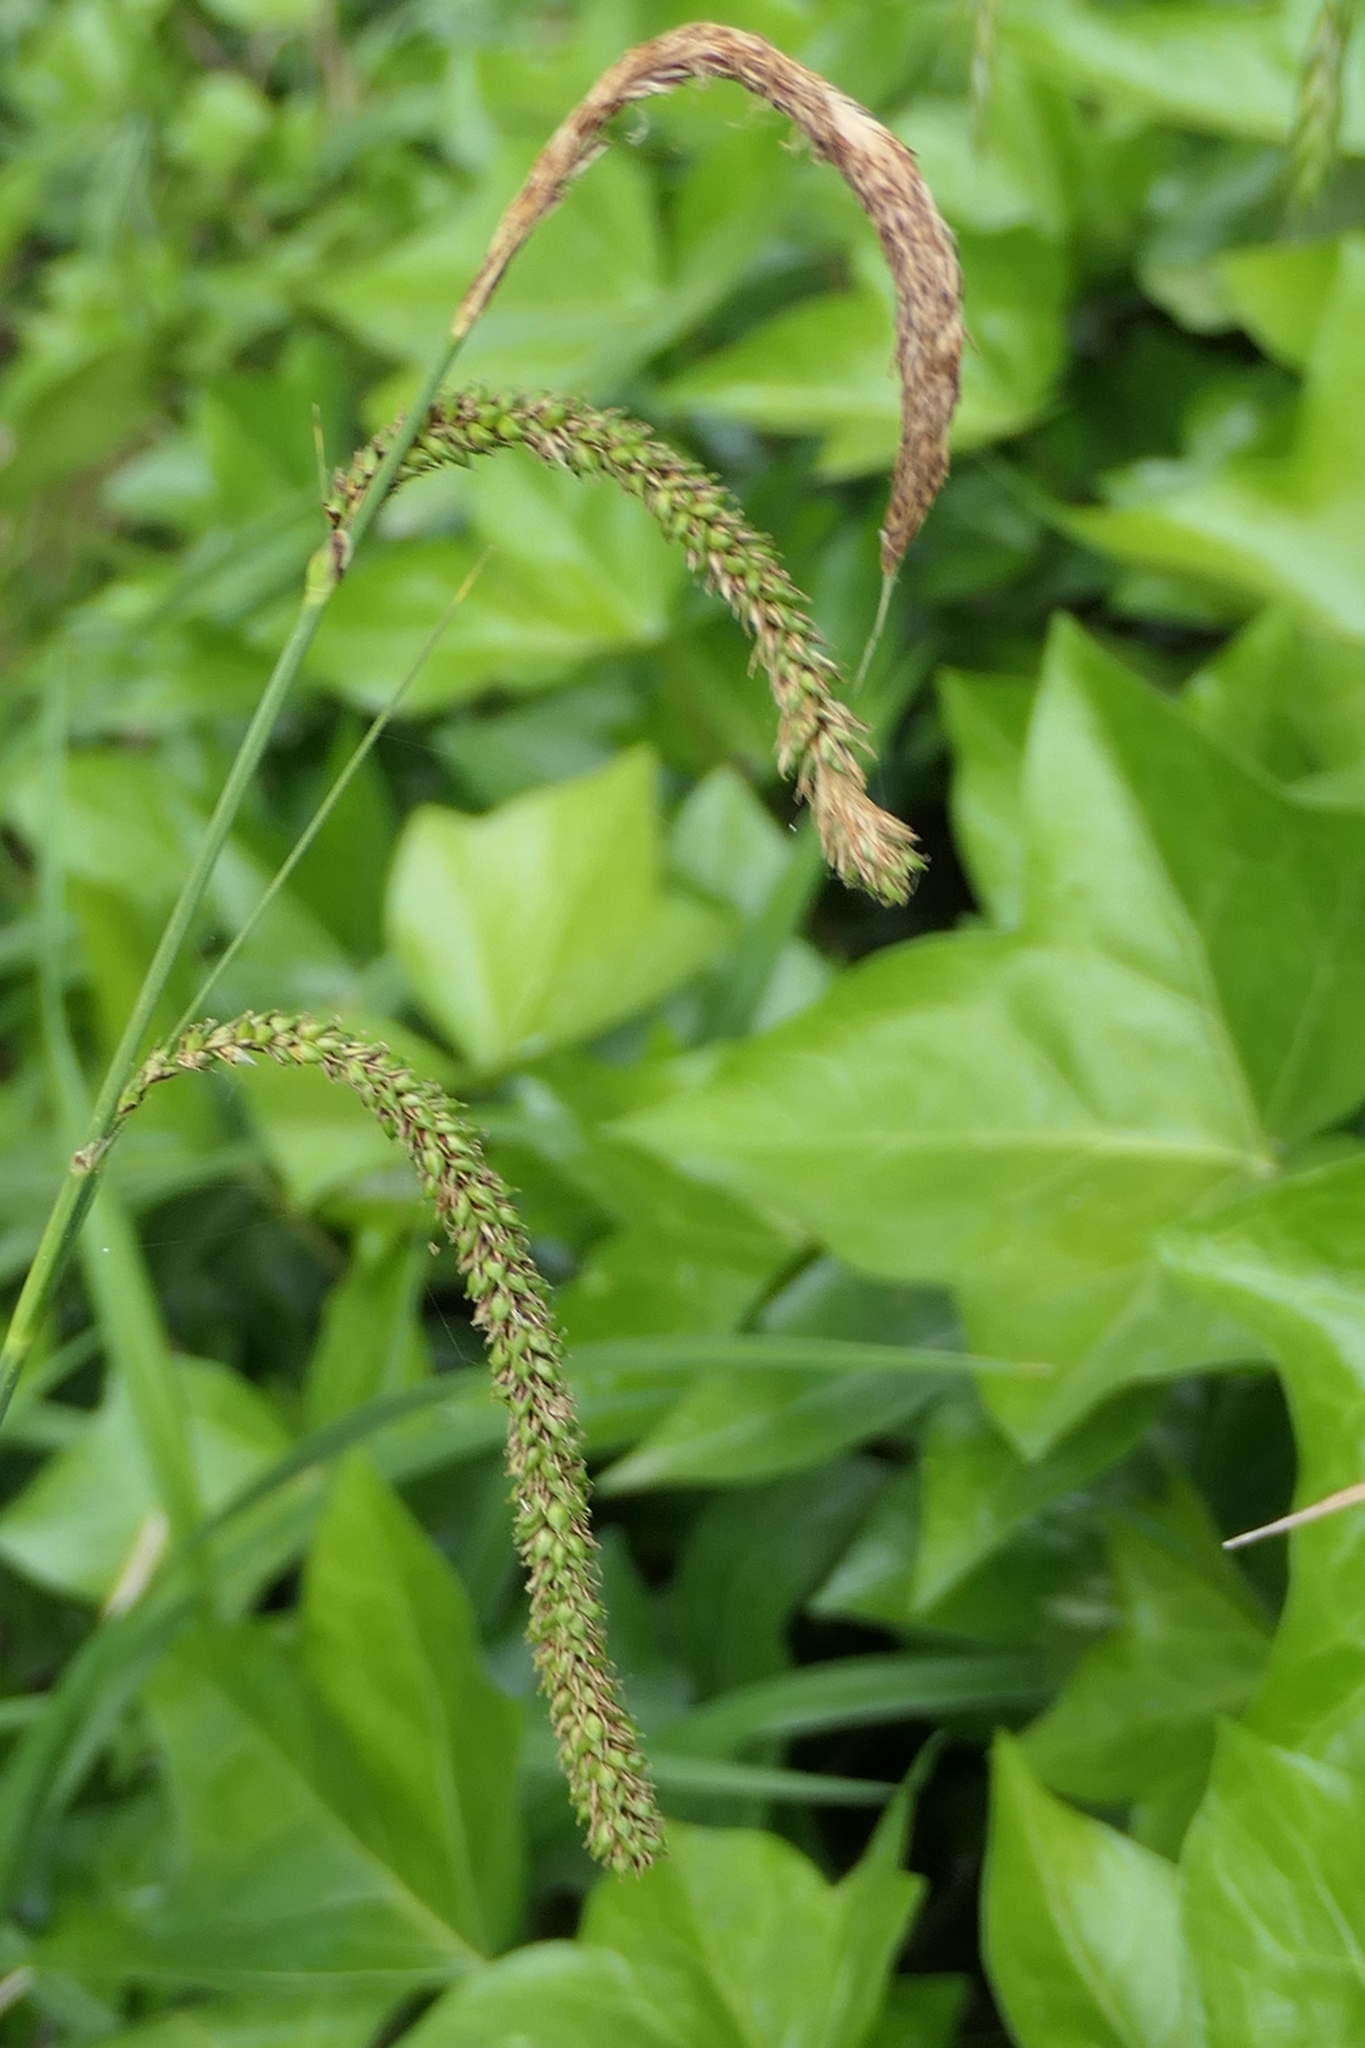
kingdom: Plantae
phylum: Tracheophyta
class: Liliopsida
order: Poales
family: Cyperaceae
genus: Carex
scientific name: Carex pendula
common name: Pendulous sedge
